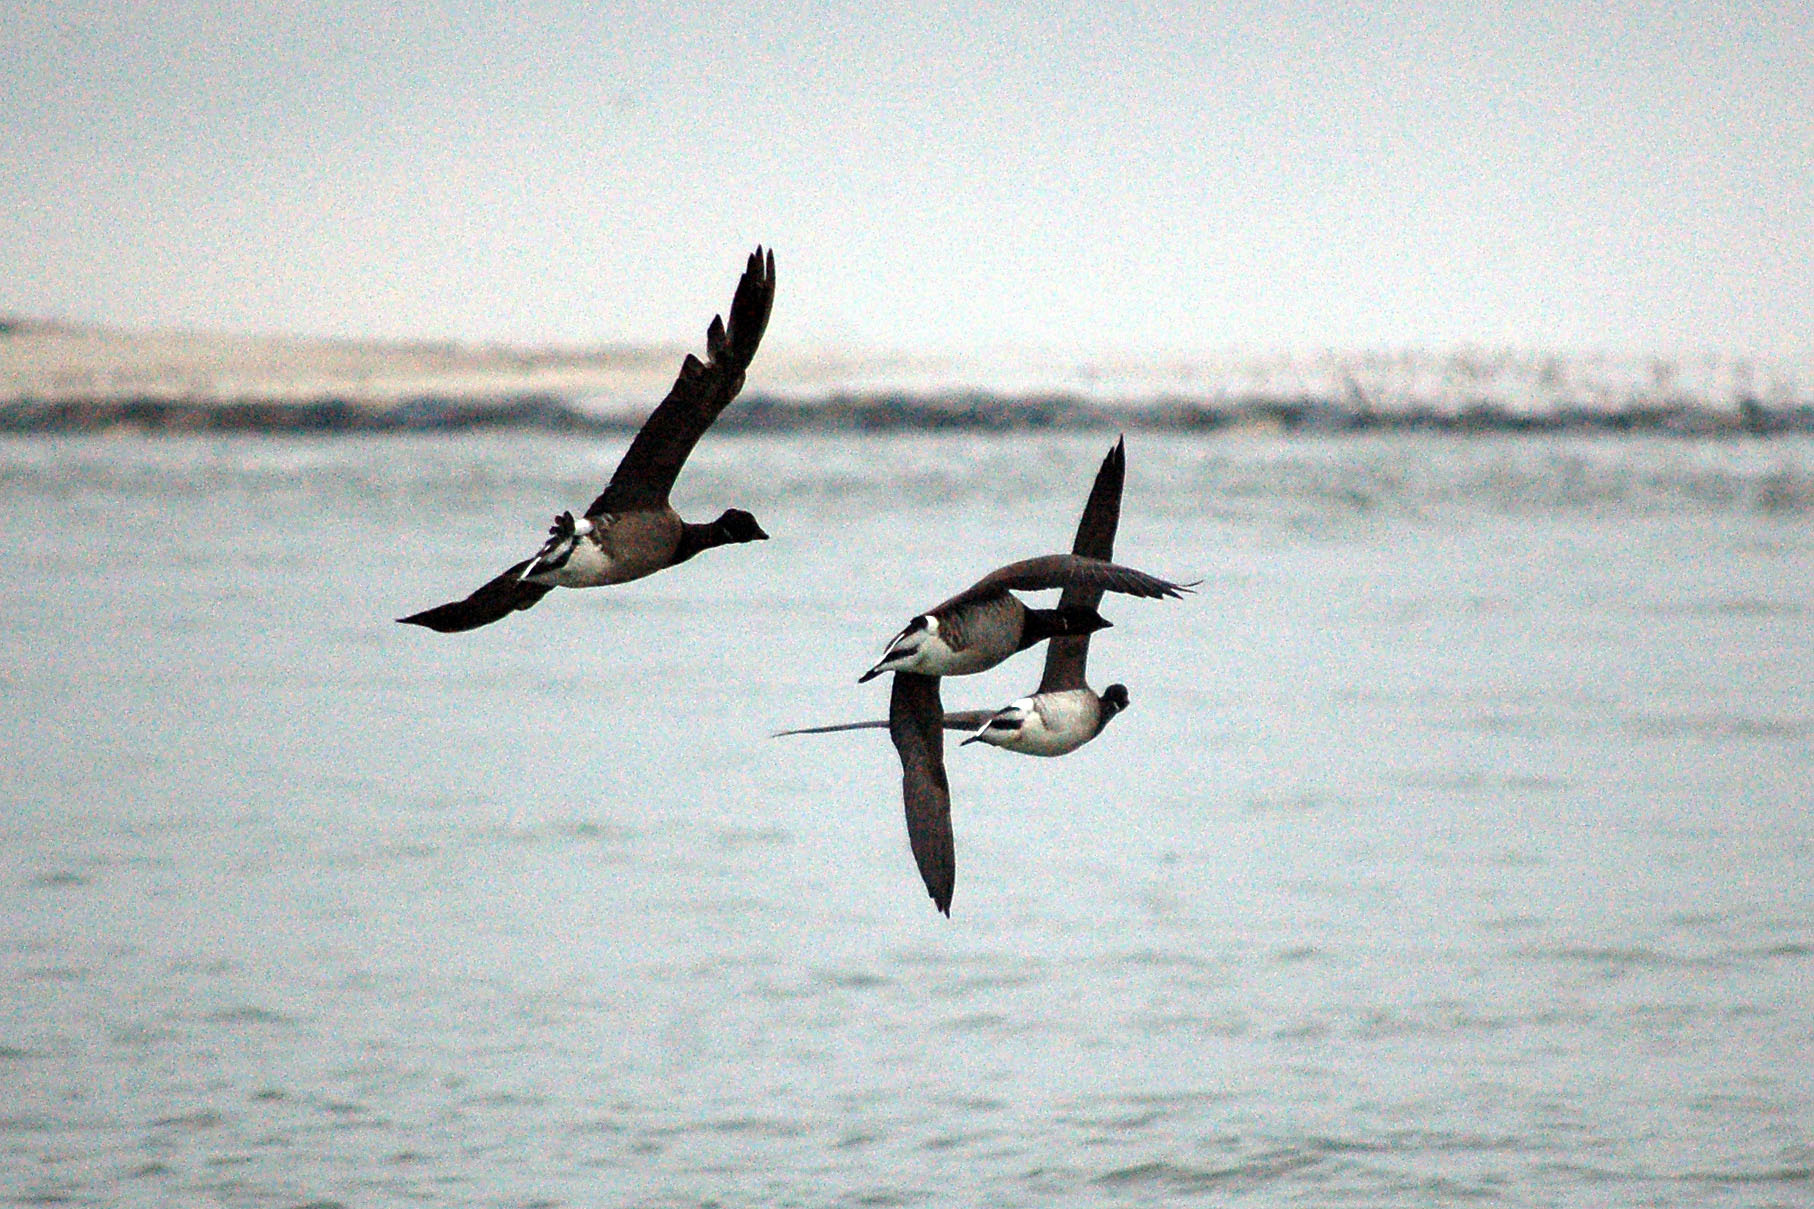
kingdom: Animalia
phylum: Chordata
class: Aves
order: Anseriformes
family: Anatidae
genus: Branta
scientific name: Branta bernicla
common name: Brant goose
